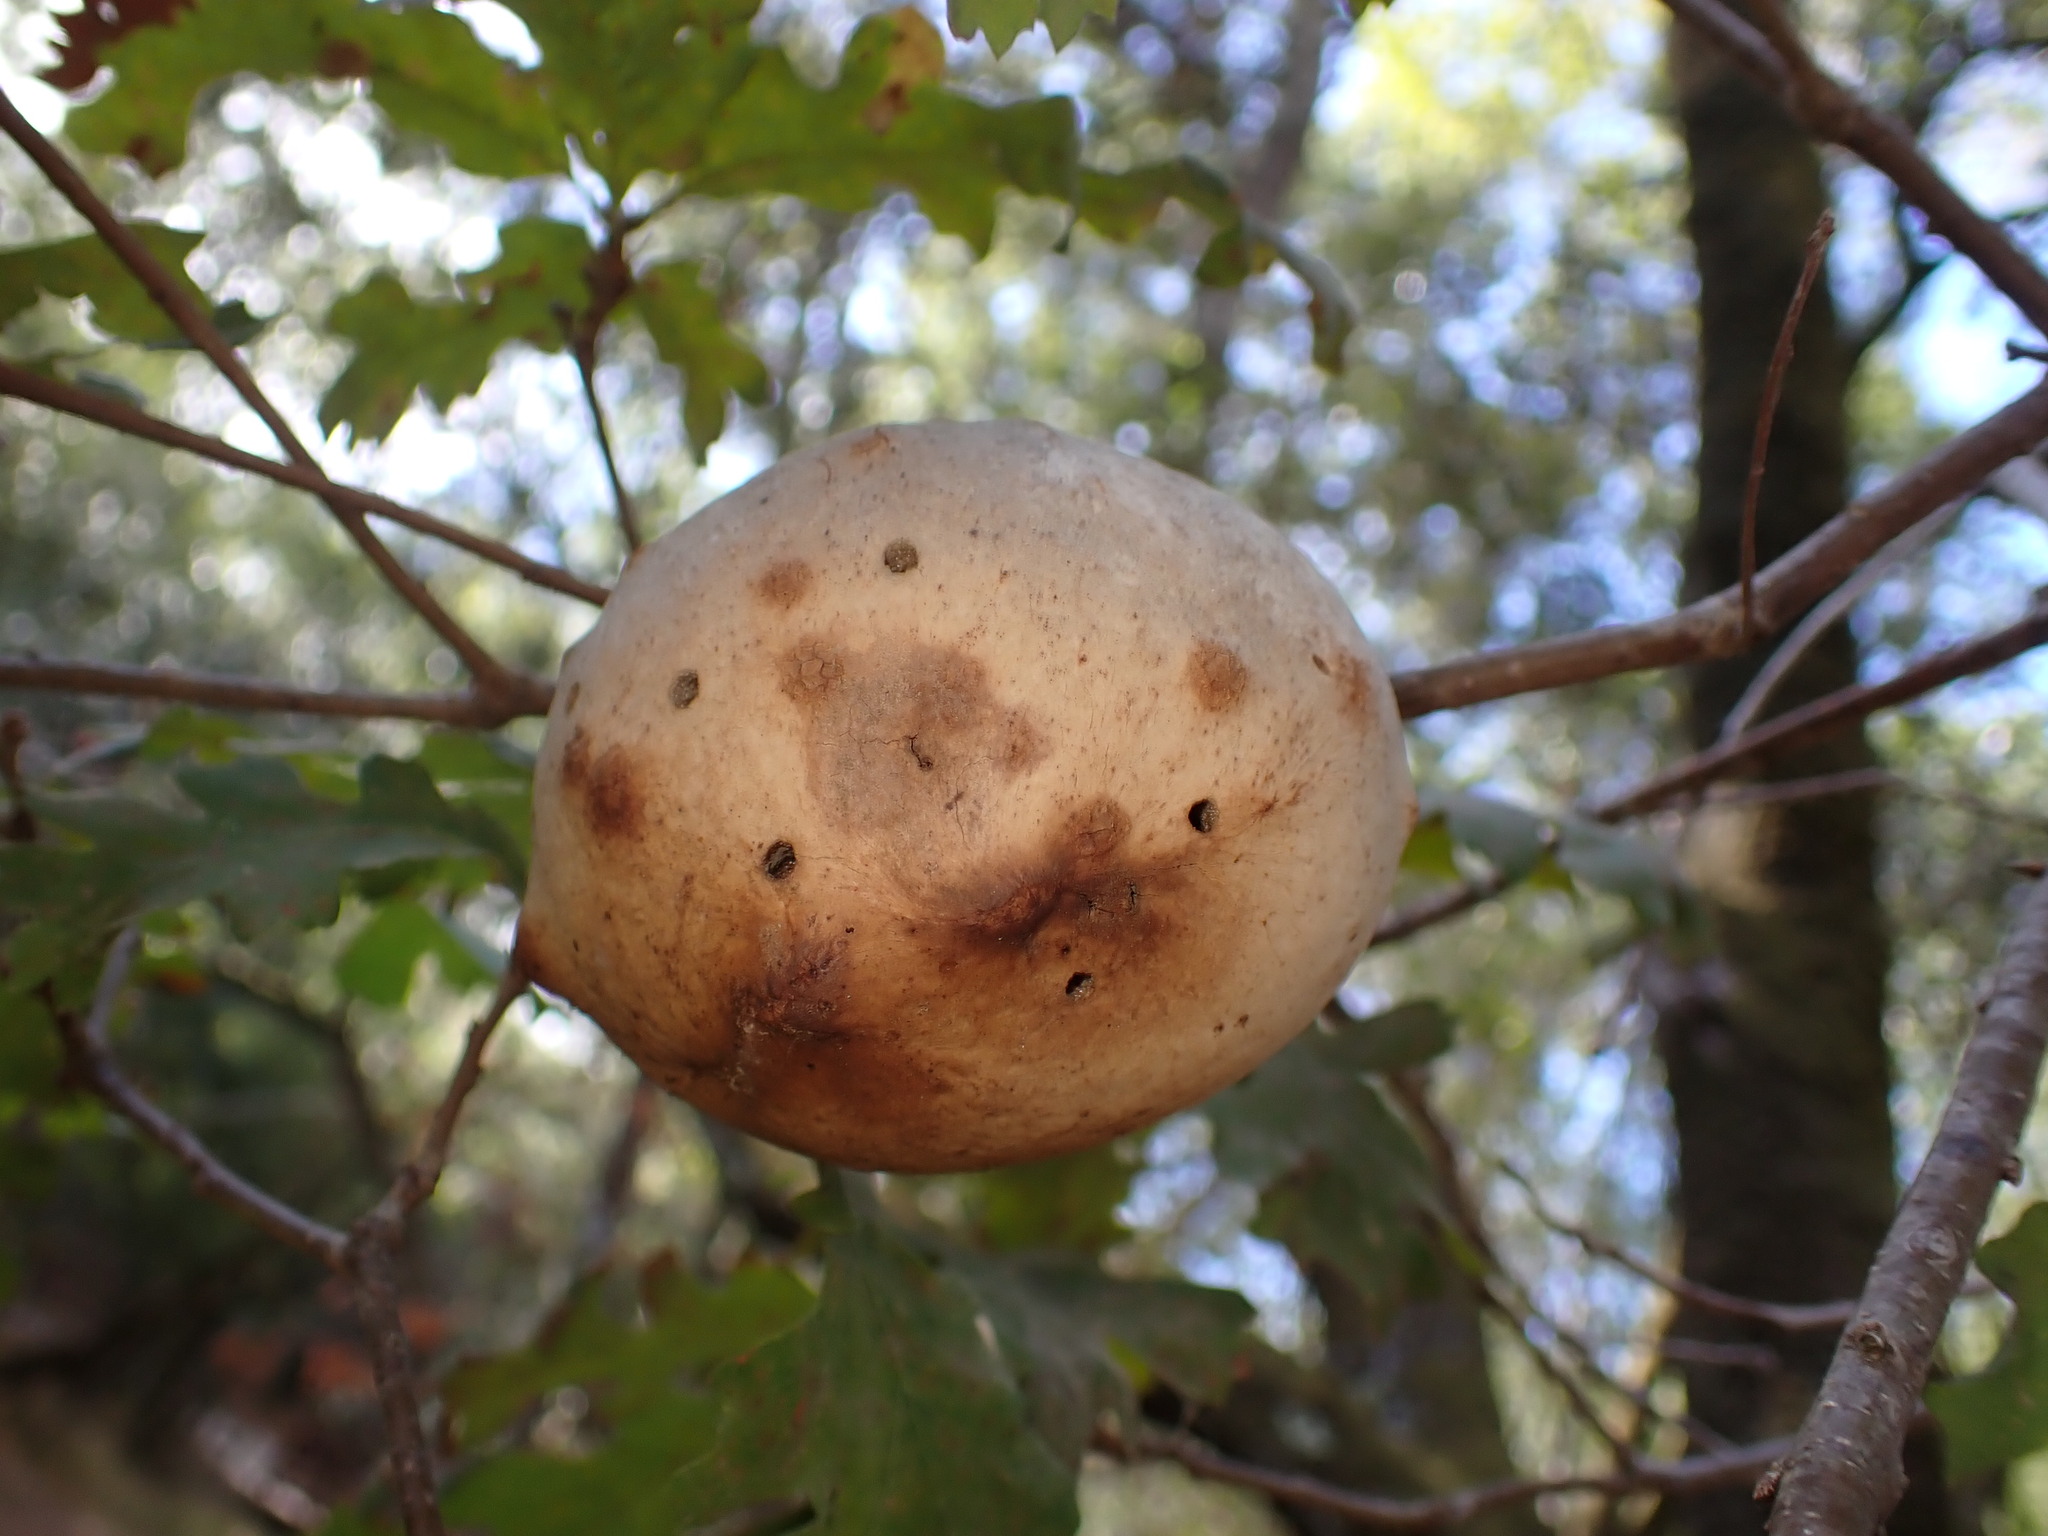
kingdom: Animalia
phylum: Arthropoda
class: Insecta
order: Hymenoptera
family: Cynipidae
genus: Andricus
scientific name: Andricus quercuscalifornicus
